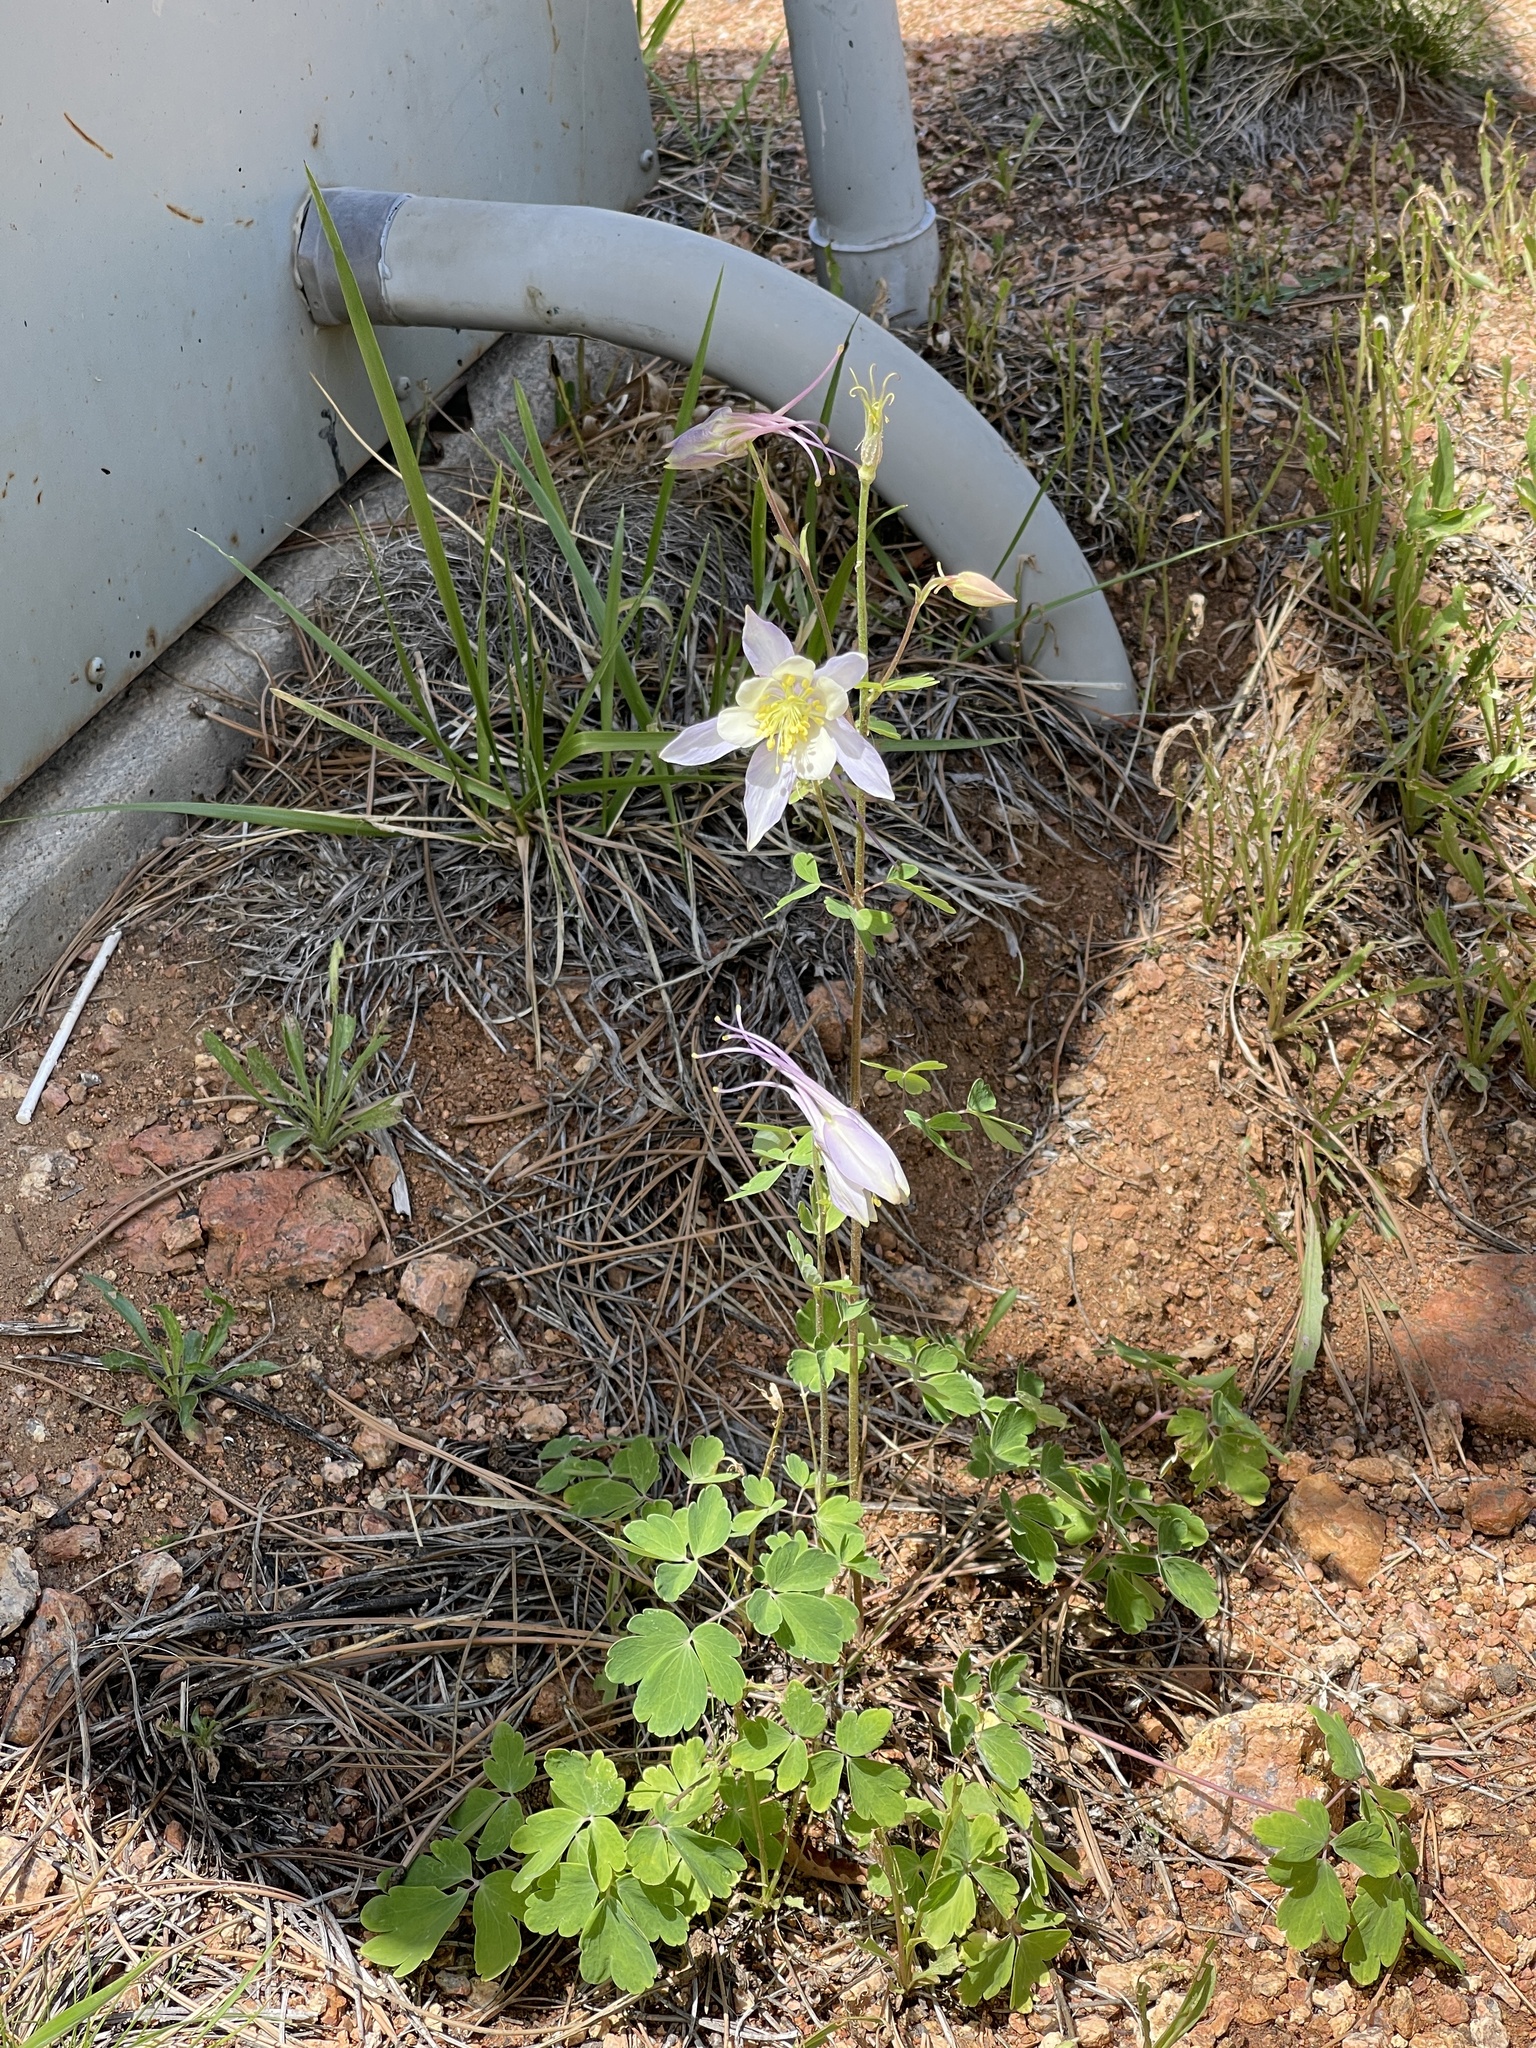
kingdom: Plantae
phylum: Tracheophyta
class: Magnoliopsida
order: Ranunculales
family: Ranunculaceae
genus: Aquilegia
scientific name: Aquilegia coerulea
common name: Rocky mountain columbine
